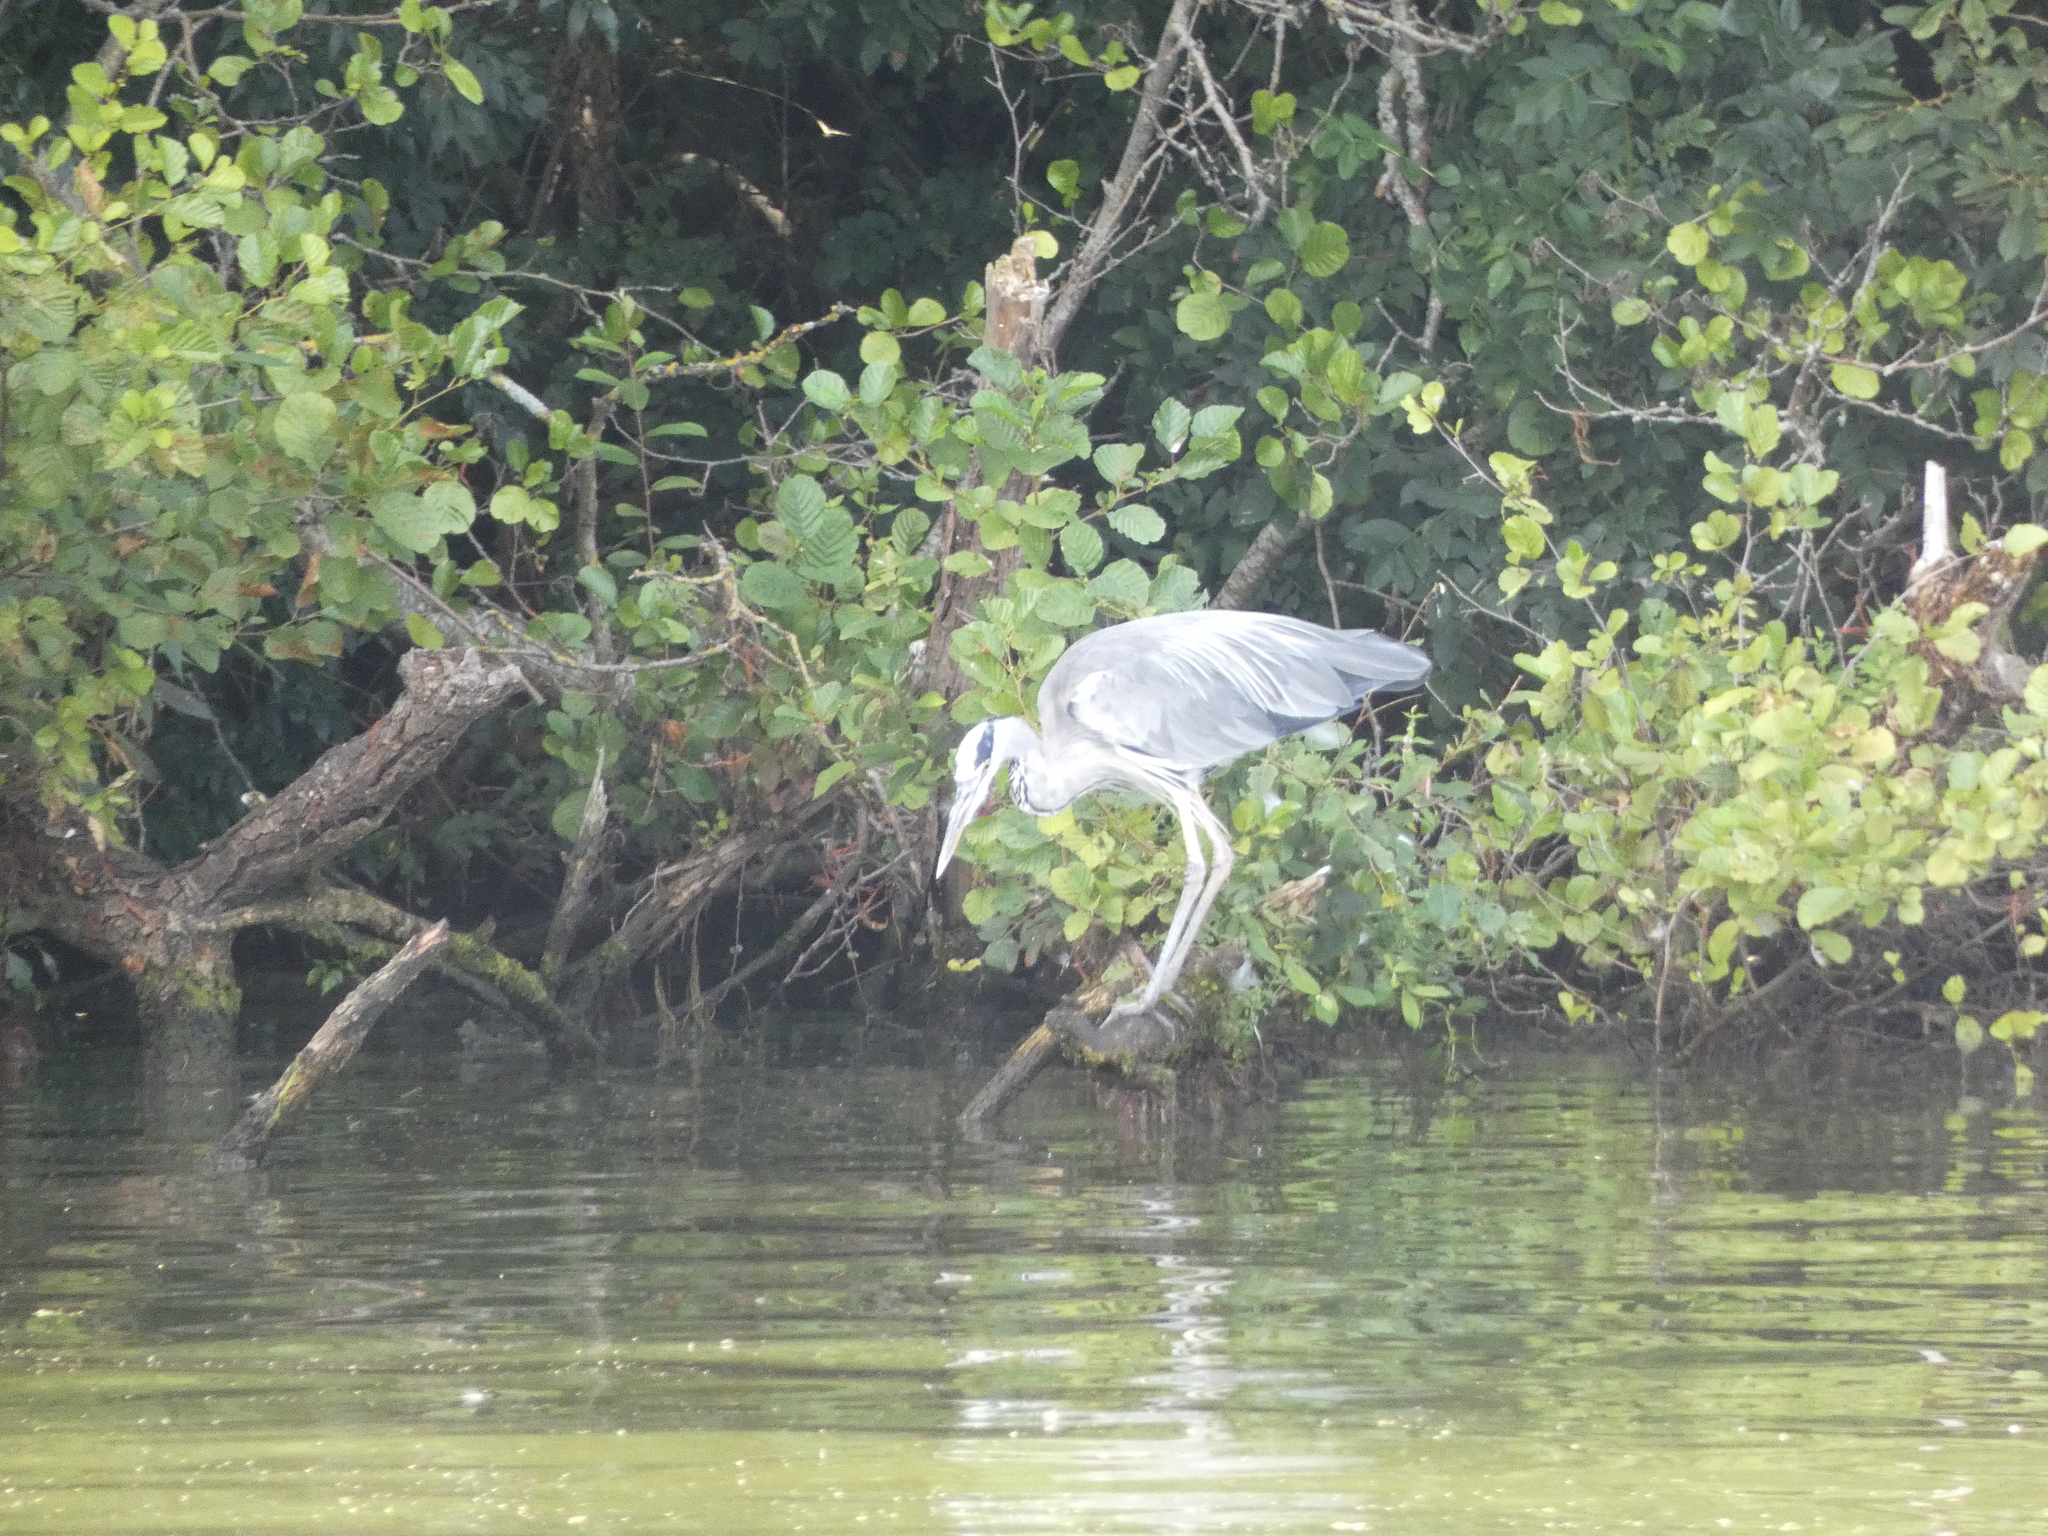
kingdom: Animalia
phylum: Chordata
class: Aves
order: Pelecaniformes
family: Ardeidae
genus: Ardea
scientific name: Ardea cinerea
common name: Grey heron
